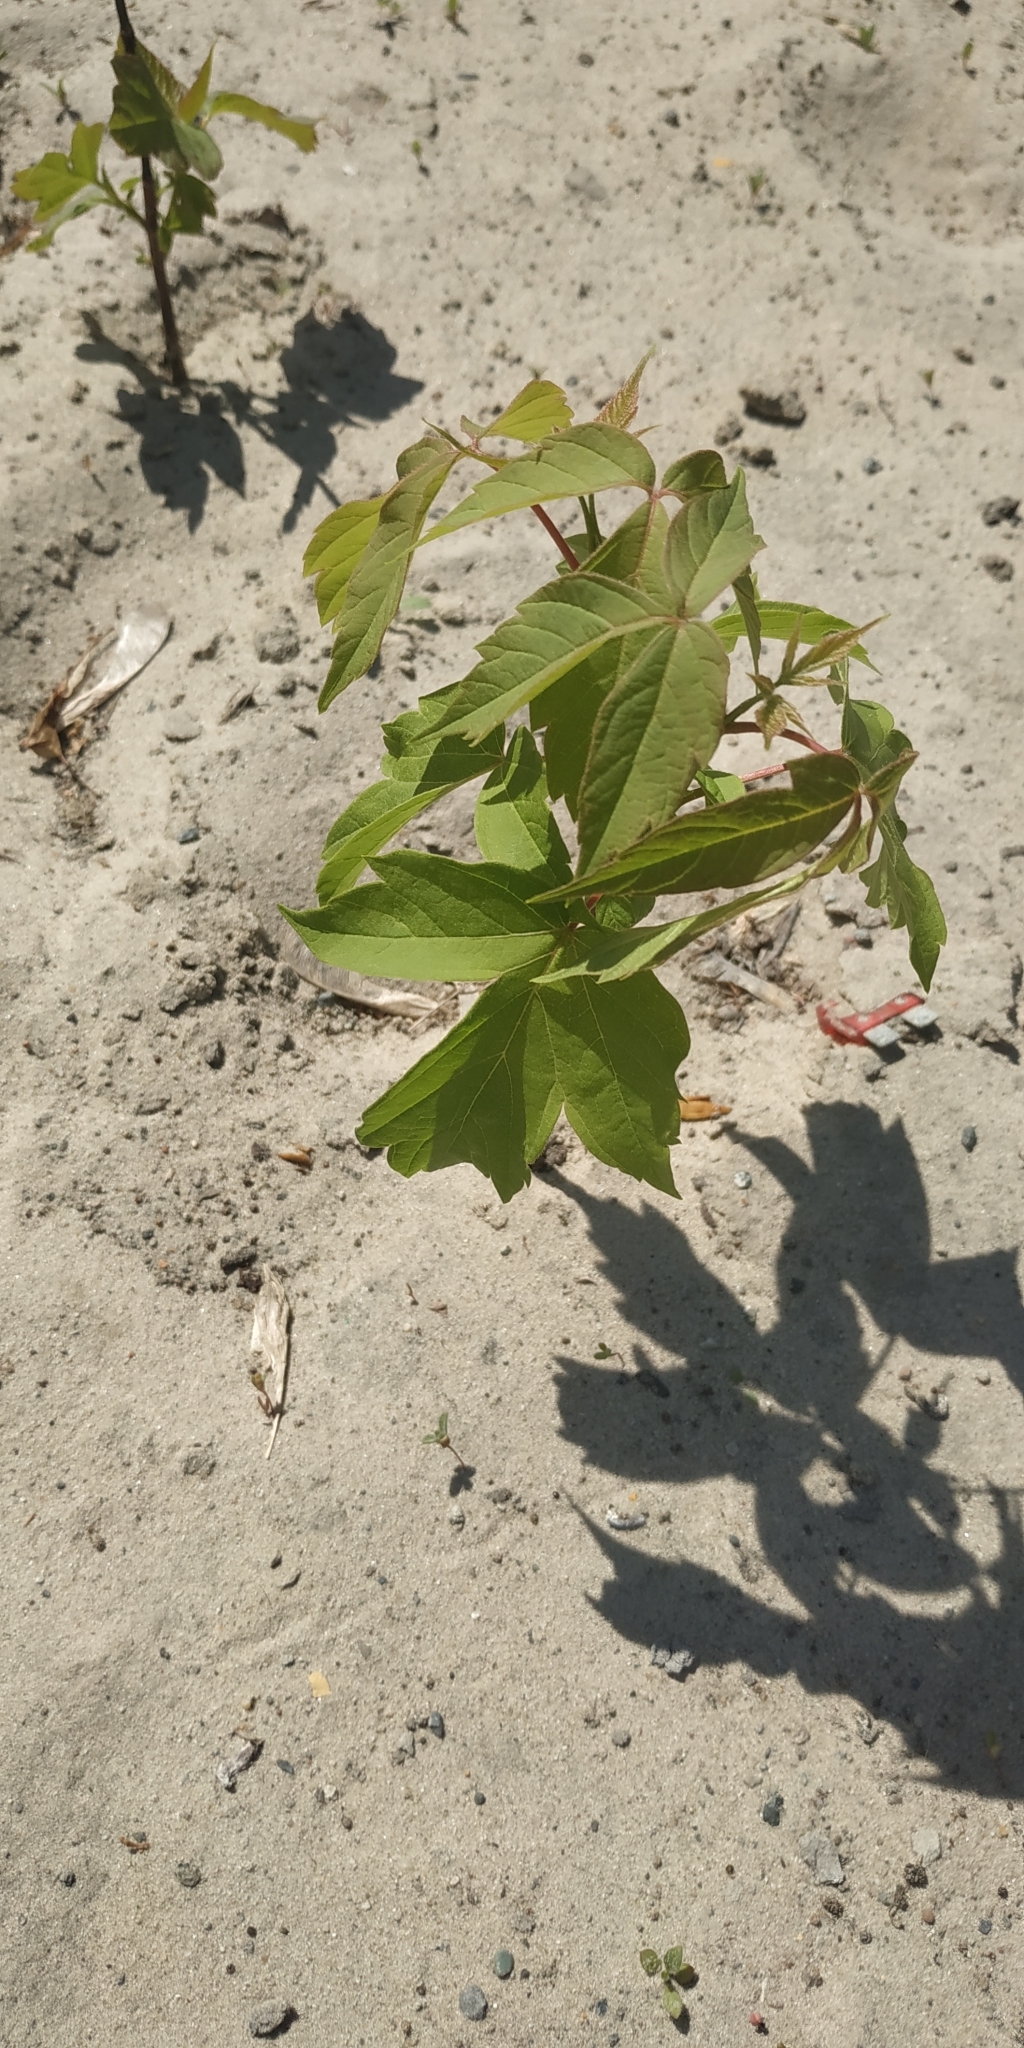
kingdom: Plantae
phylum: Tracheophyta
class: Magnoliopsida
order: Sapindales
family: Sapindaceae
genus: Acer
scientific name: Acer negundo
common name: Ashleaf maple
